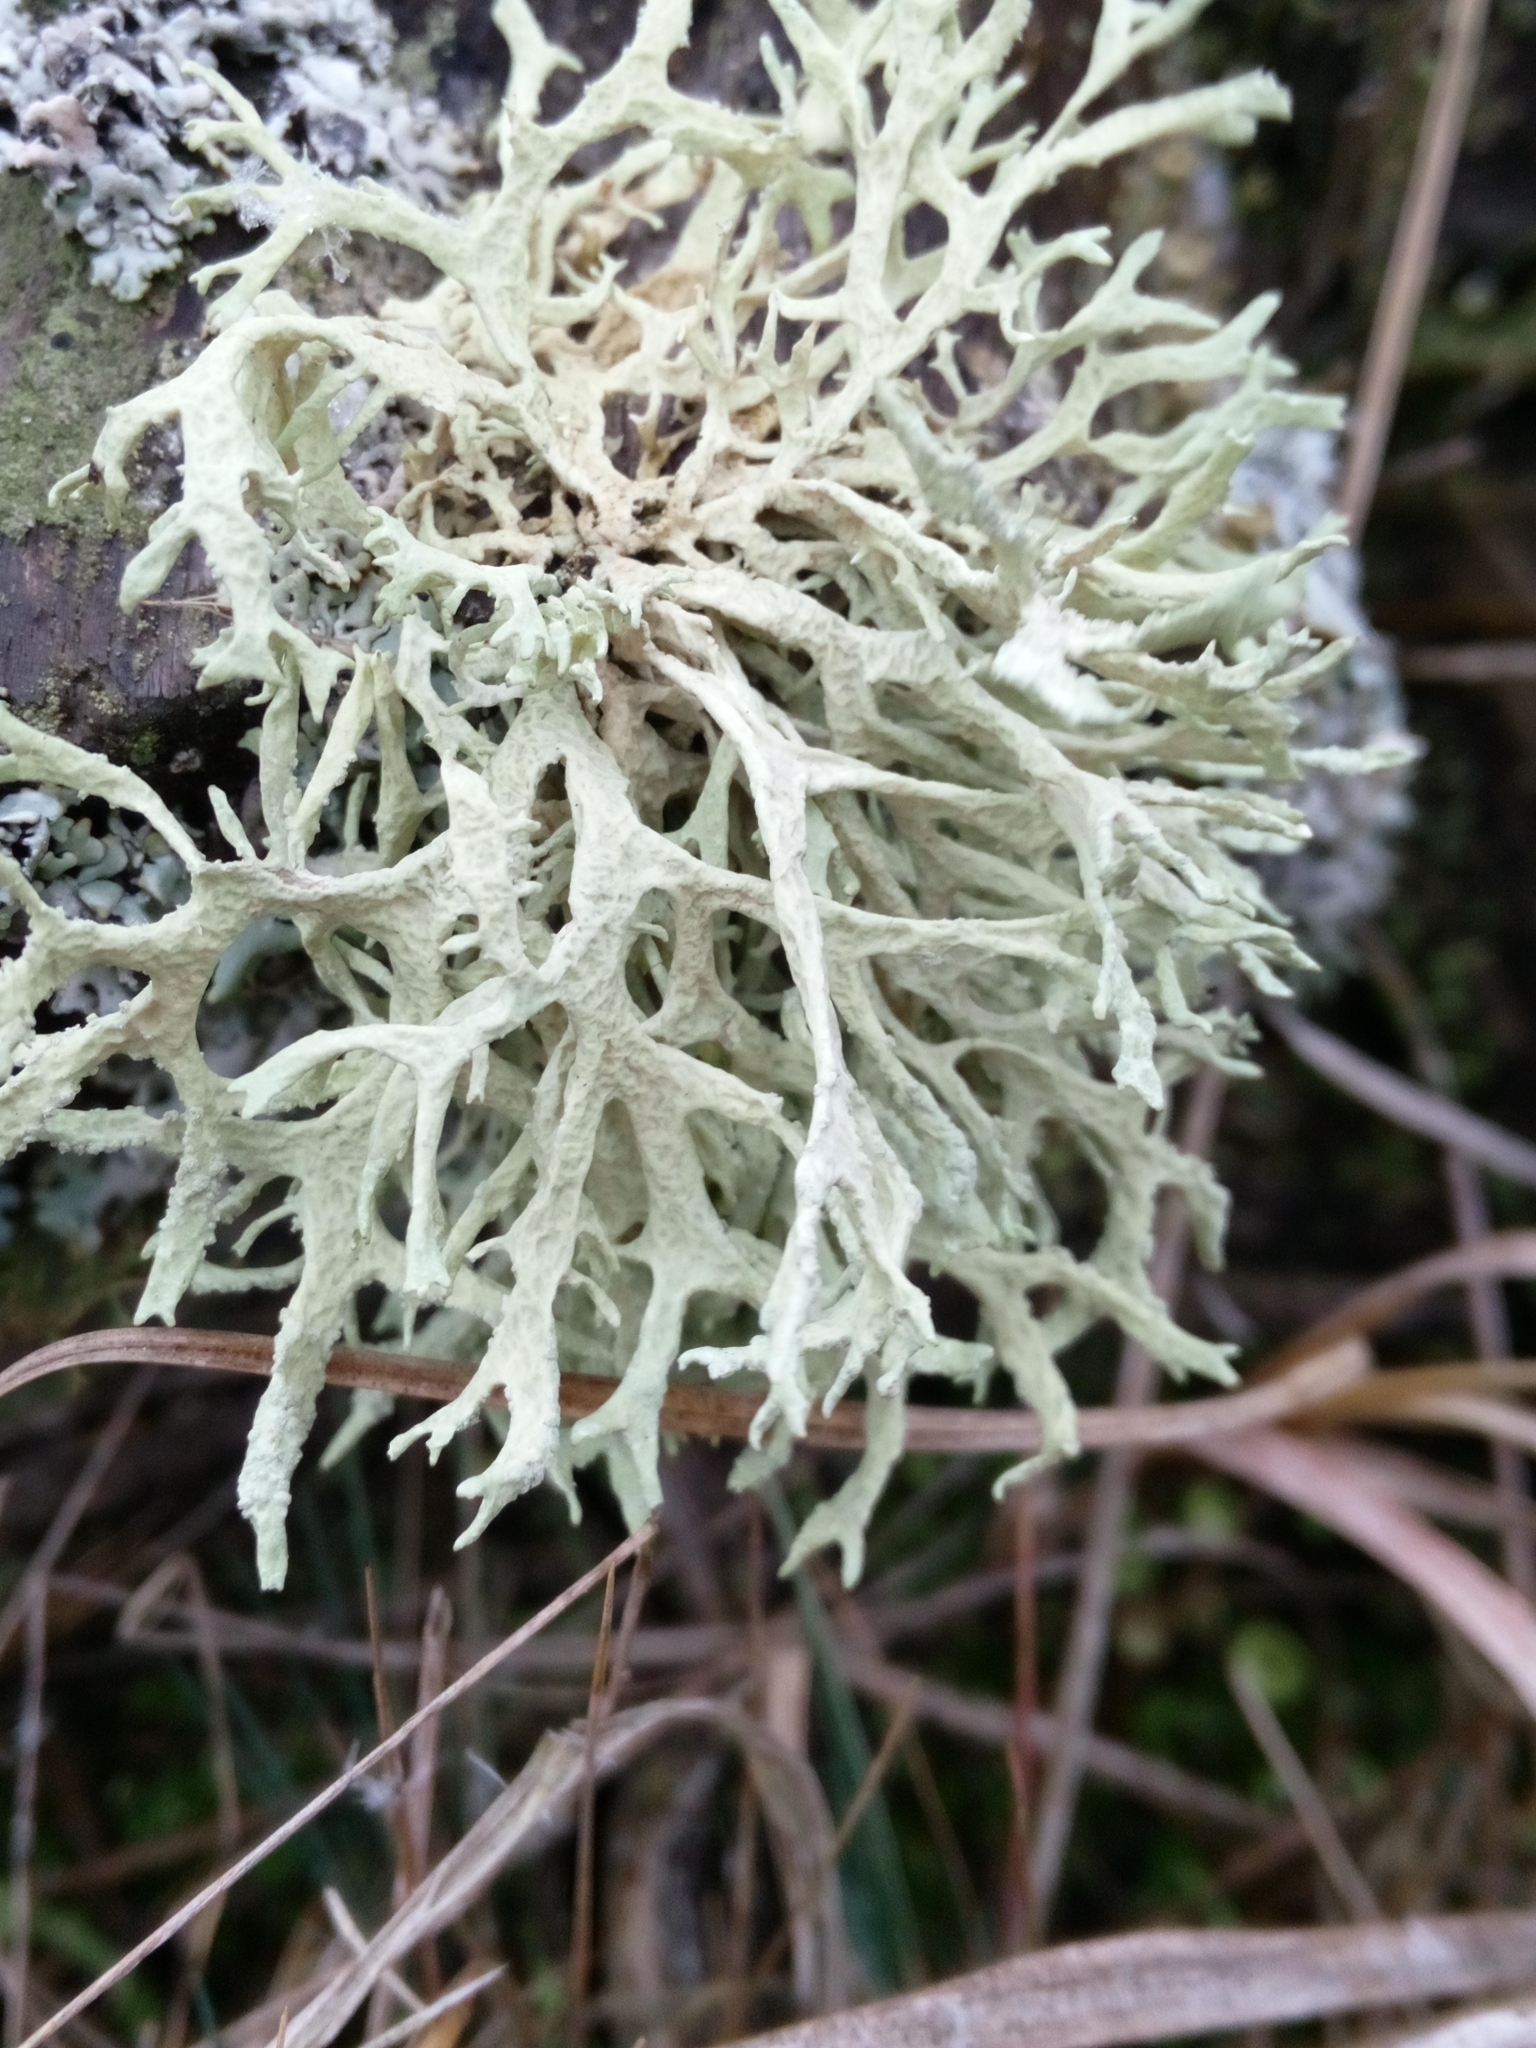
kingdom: Fungi
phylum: Ascomycota
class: Lecanoromycetes
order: Lecanorales
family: Parmeliaceae
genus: Evernia
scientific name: Evernia prunastri
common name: Oak moss
